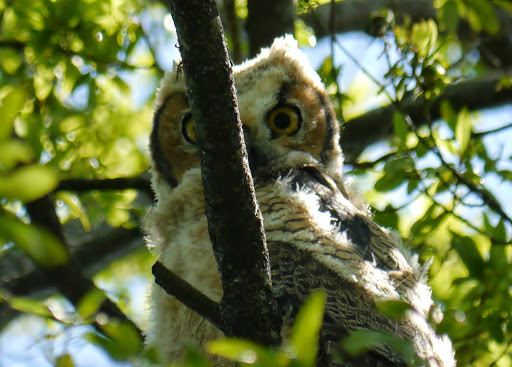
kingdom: Animalia
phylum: Chordata
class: Aves
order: Strigiformes
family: Strigidae
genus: Bubo
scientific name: Bubo virginianus
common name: Great horned owl
